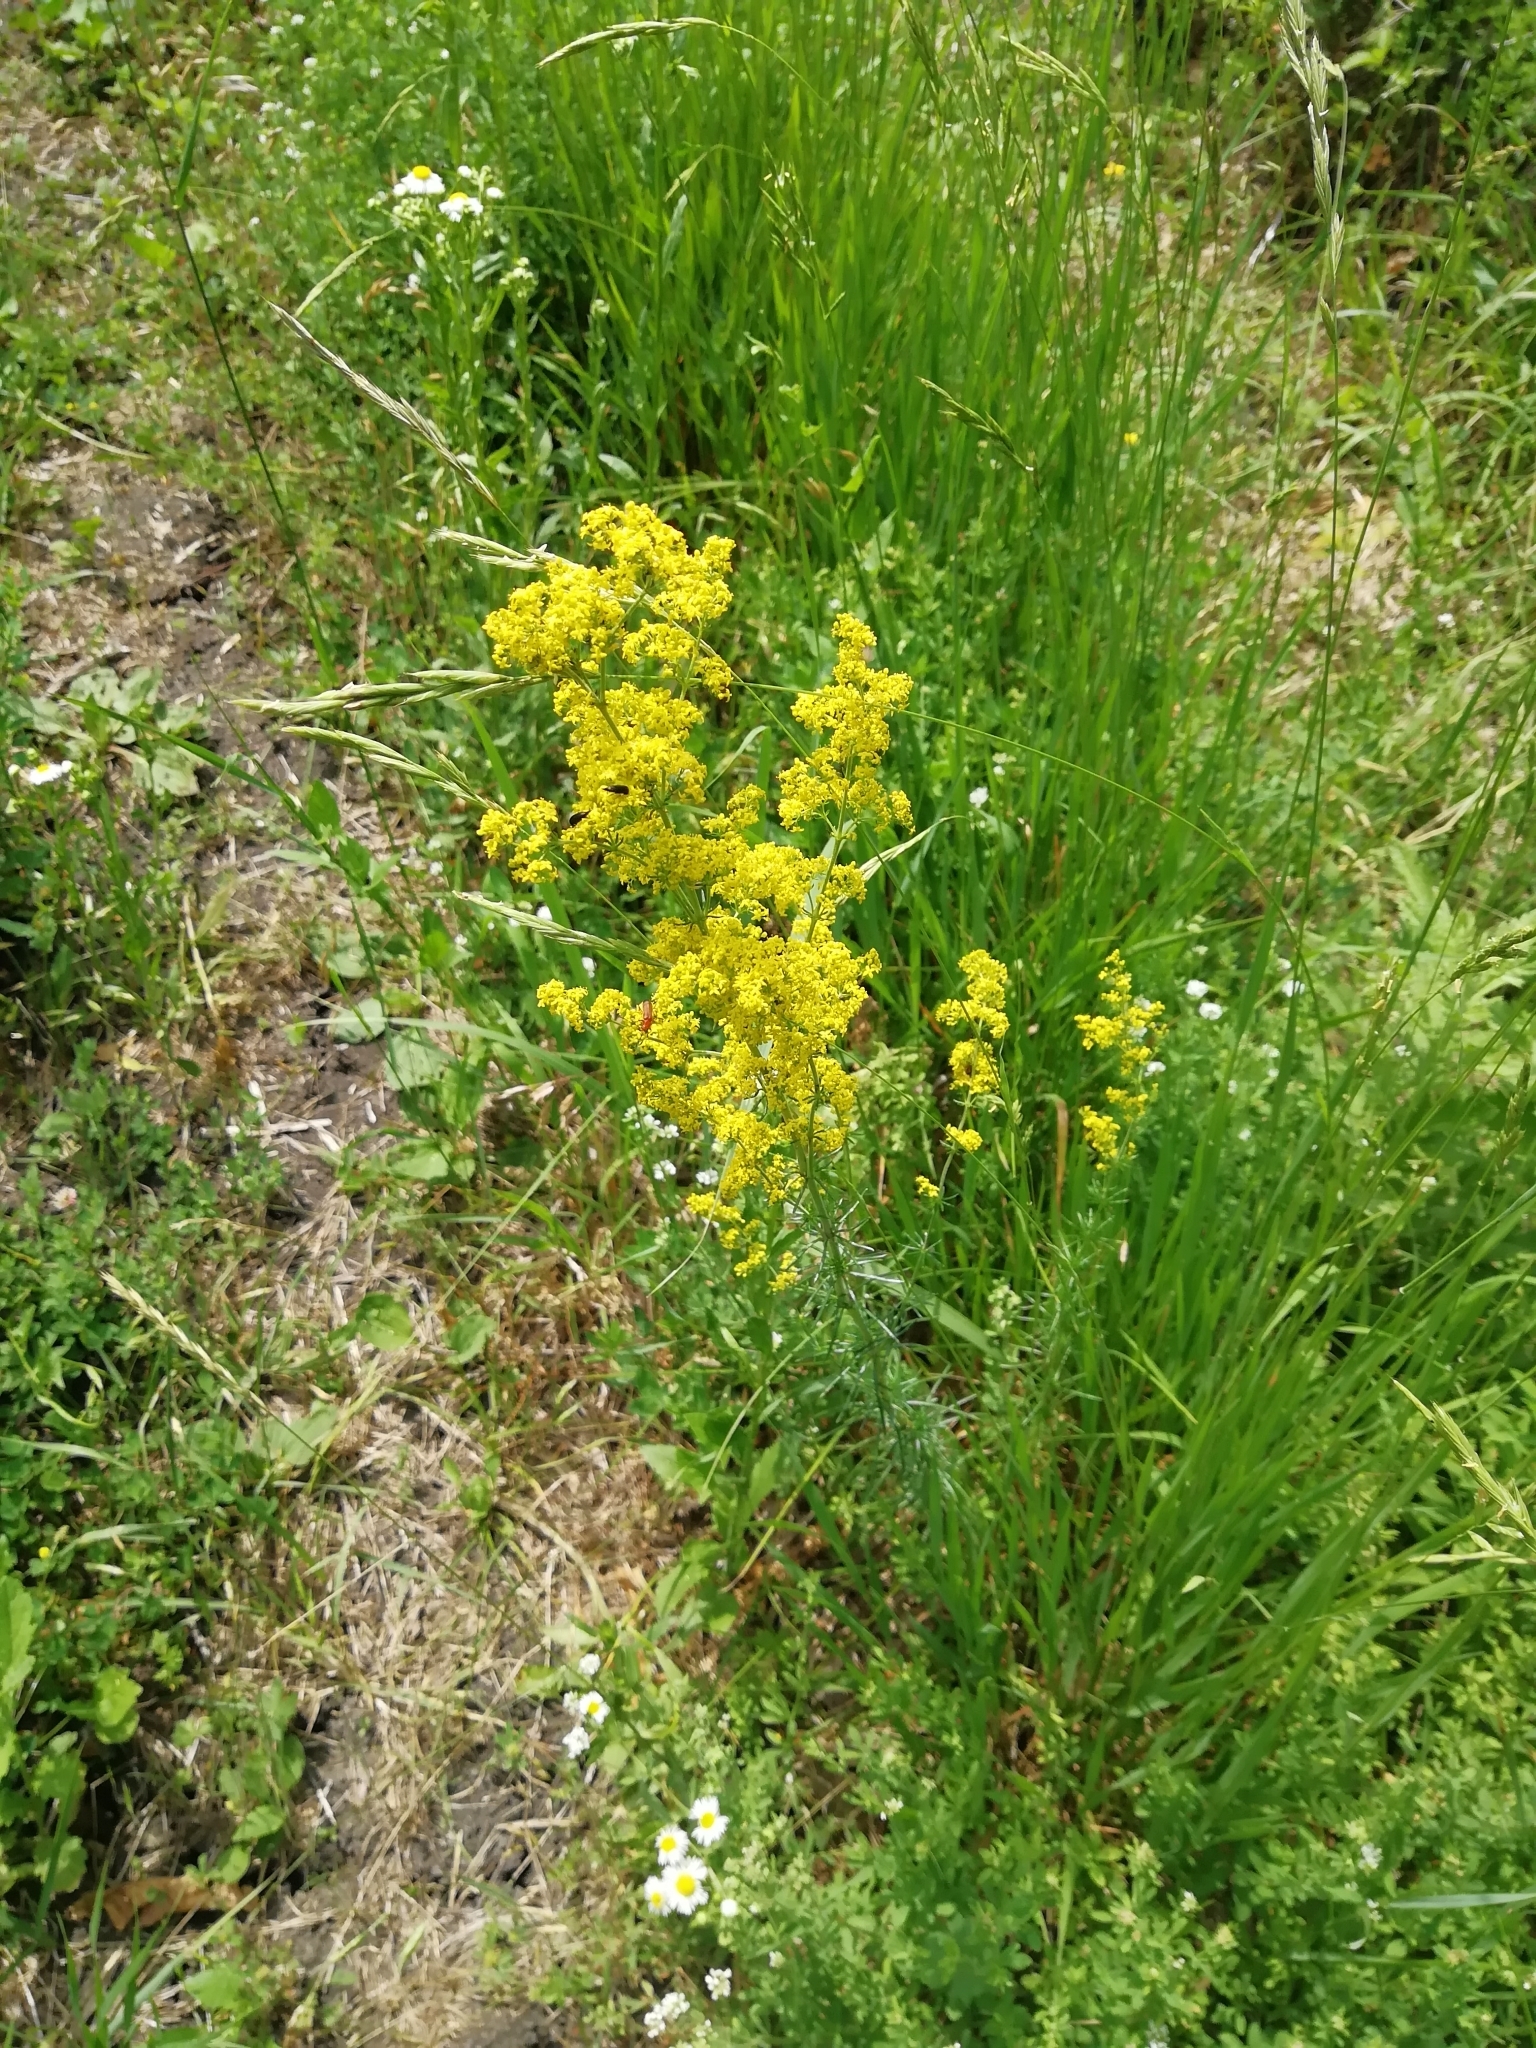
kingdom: Plantae
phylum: Tracheophyta
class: Magnoliopsida
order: Gentianales
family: Rubiaceae
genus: Galium
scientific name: Galium verum
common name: Lady's bedstraw
